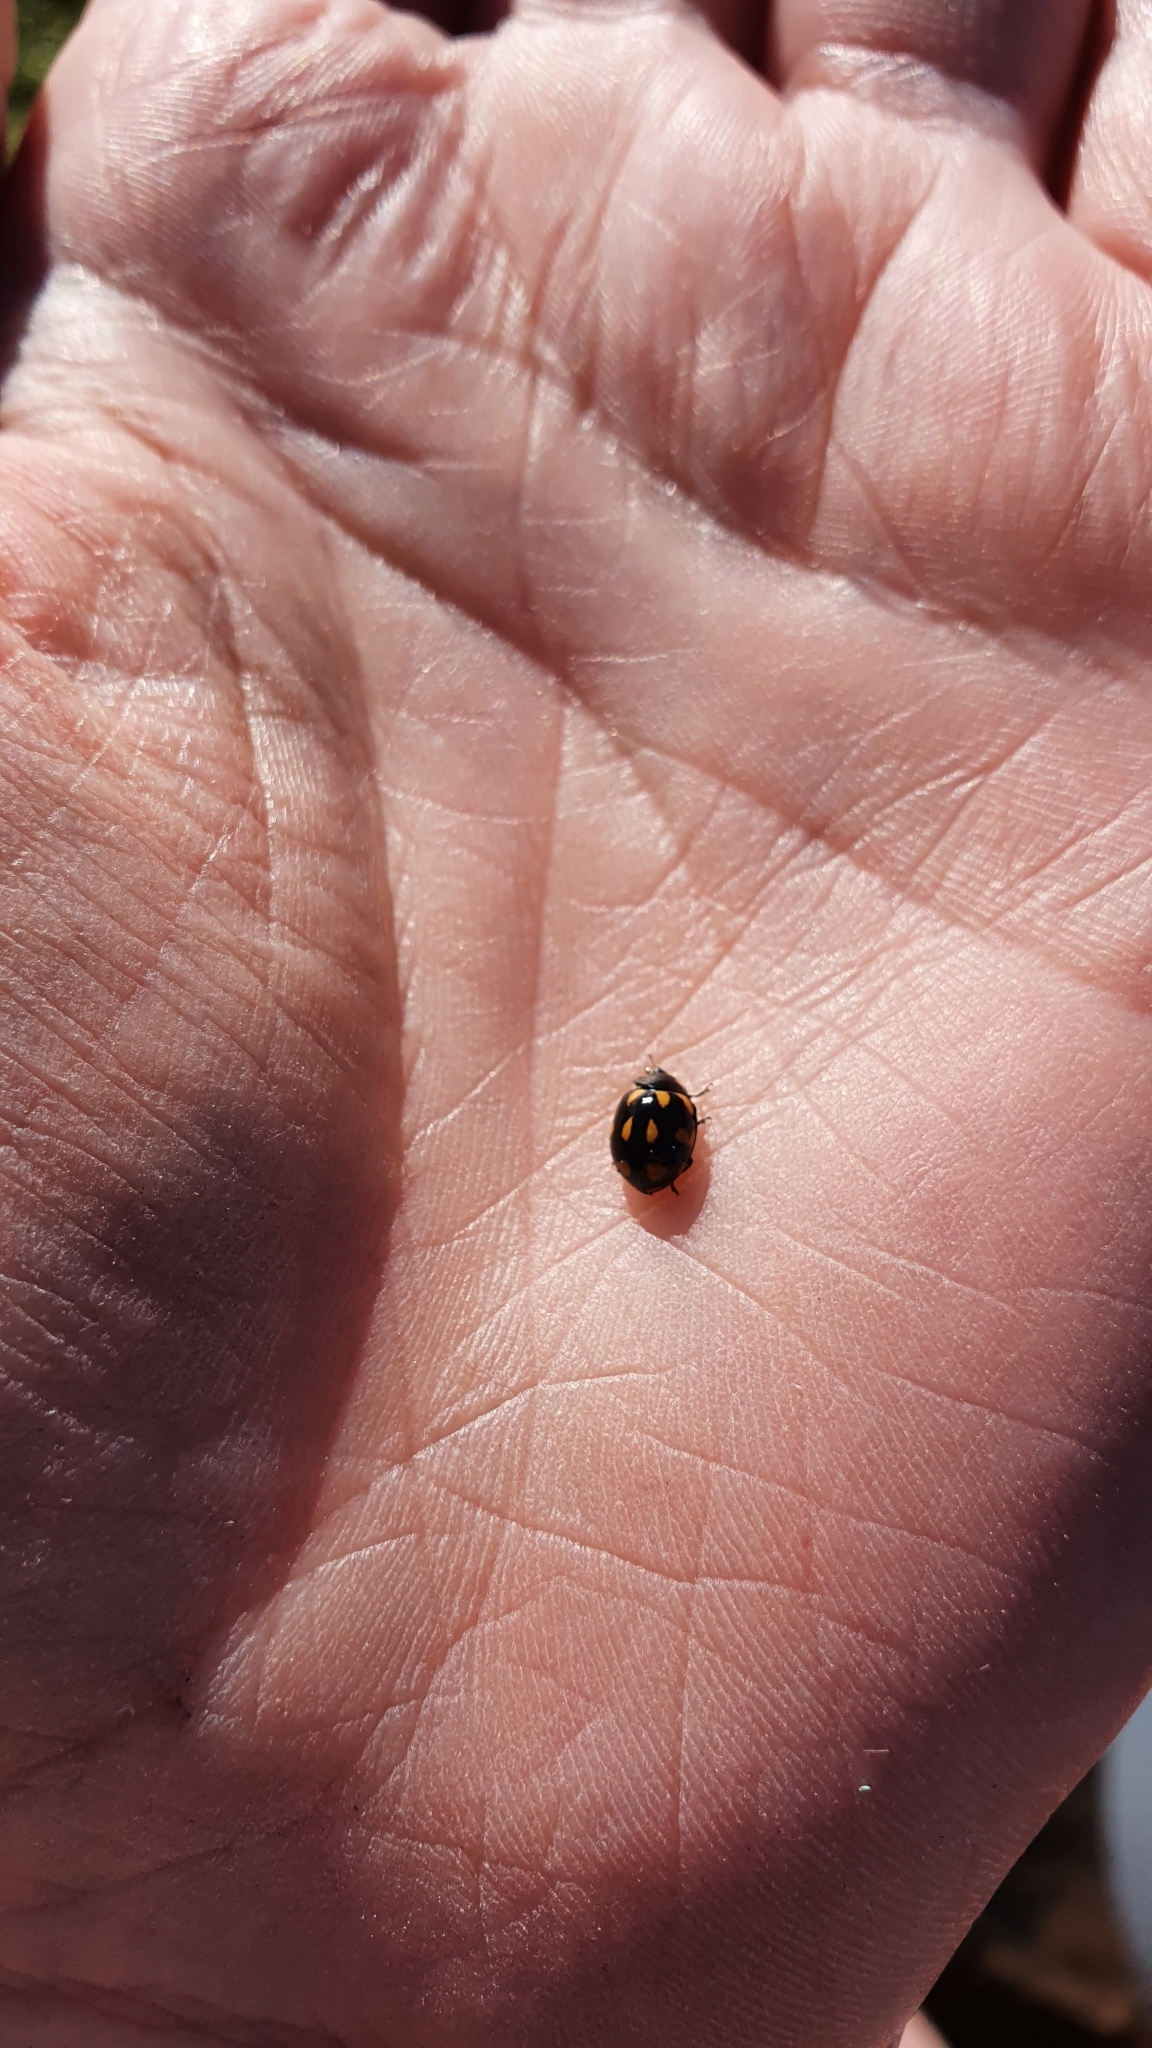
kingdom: Animalia
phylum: Arthropoda
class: Insecta
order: Coleoptera
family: Coccinellidae
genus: Coccinella
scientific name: Coccinella leonina
